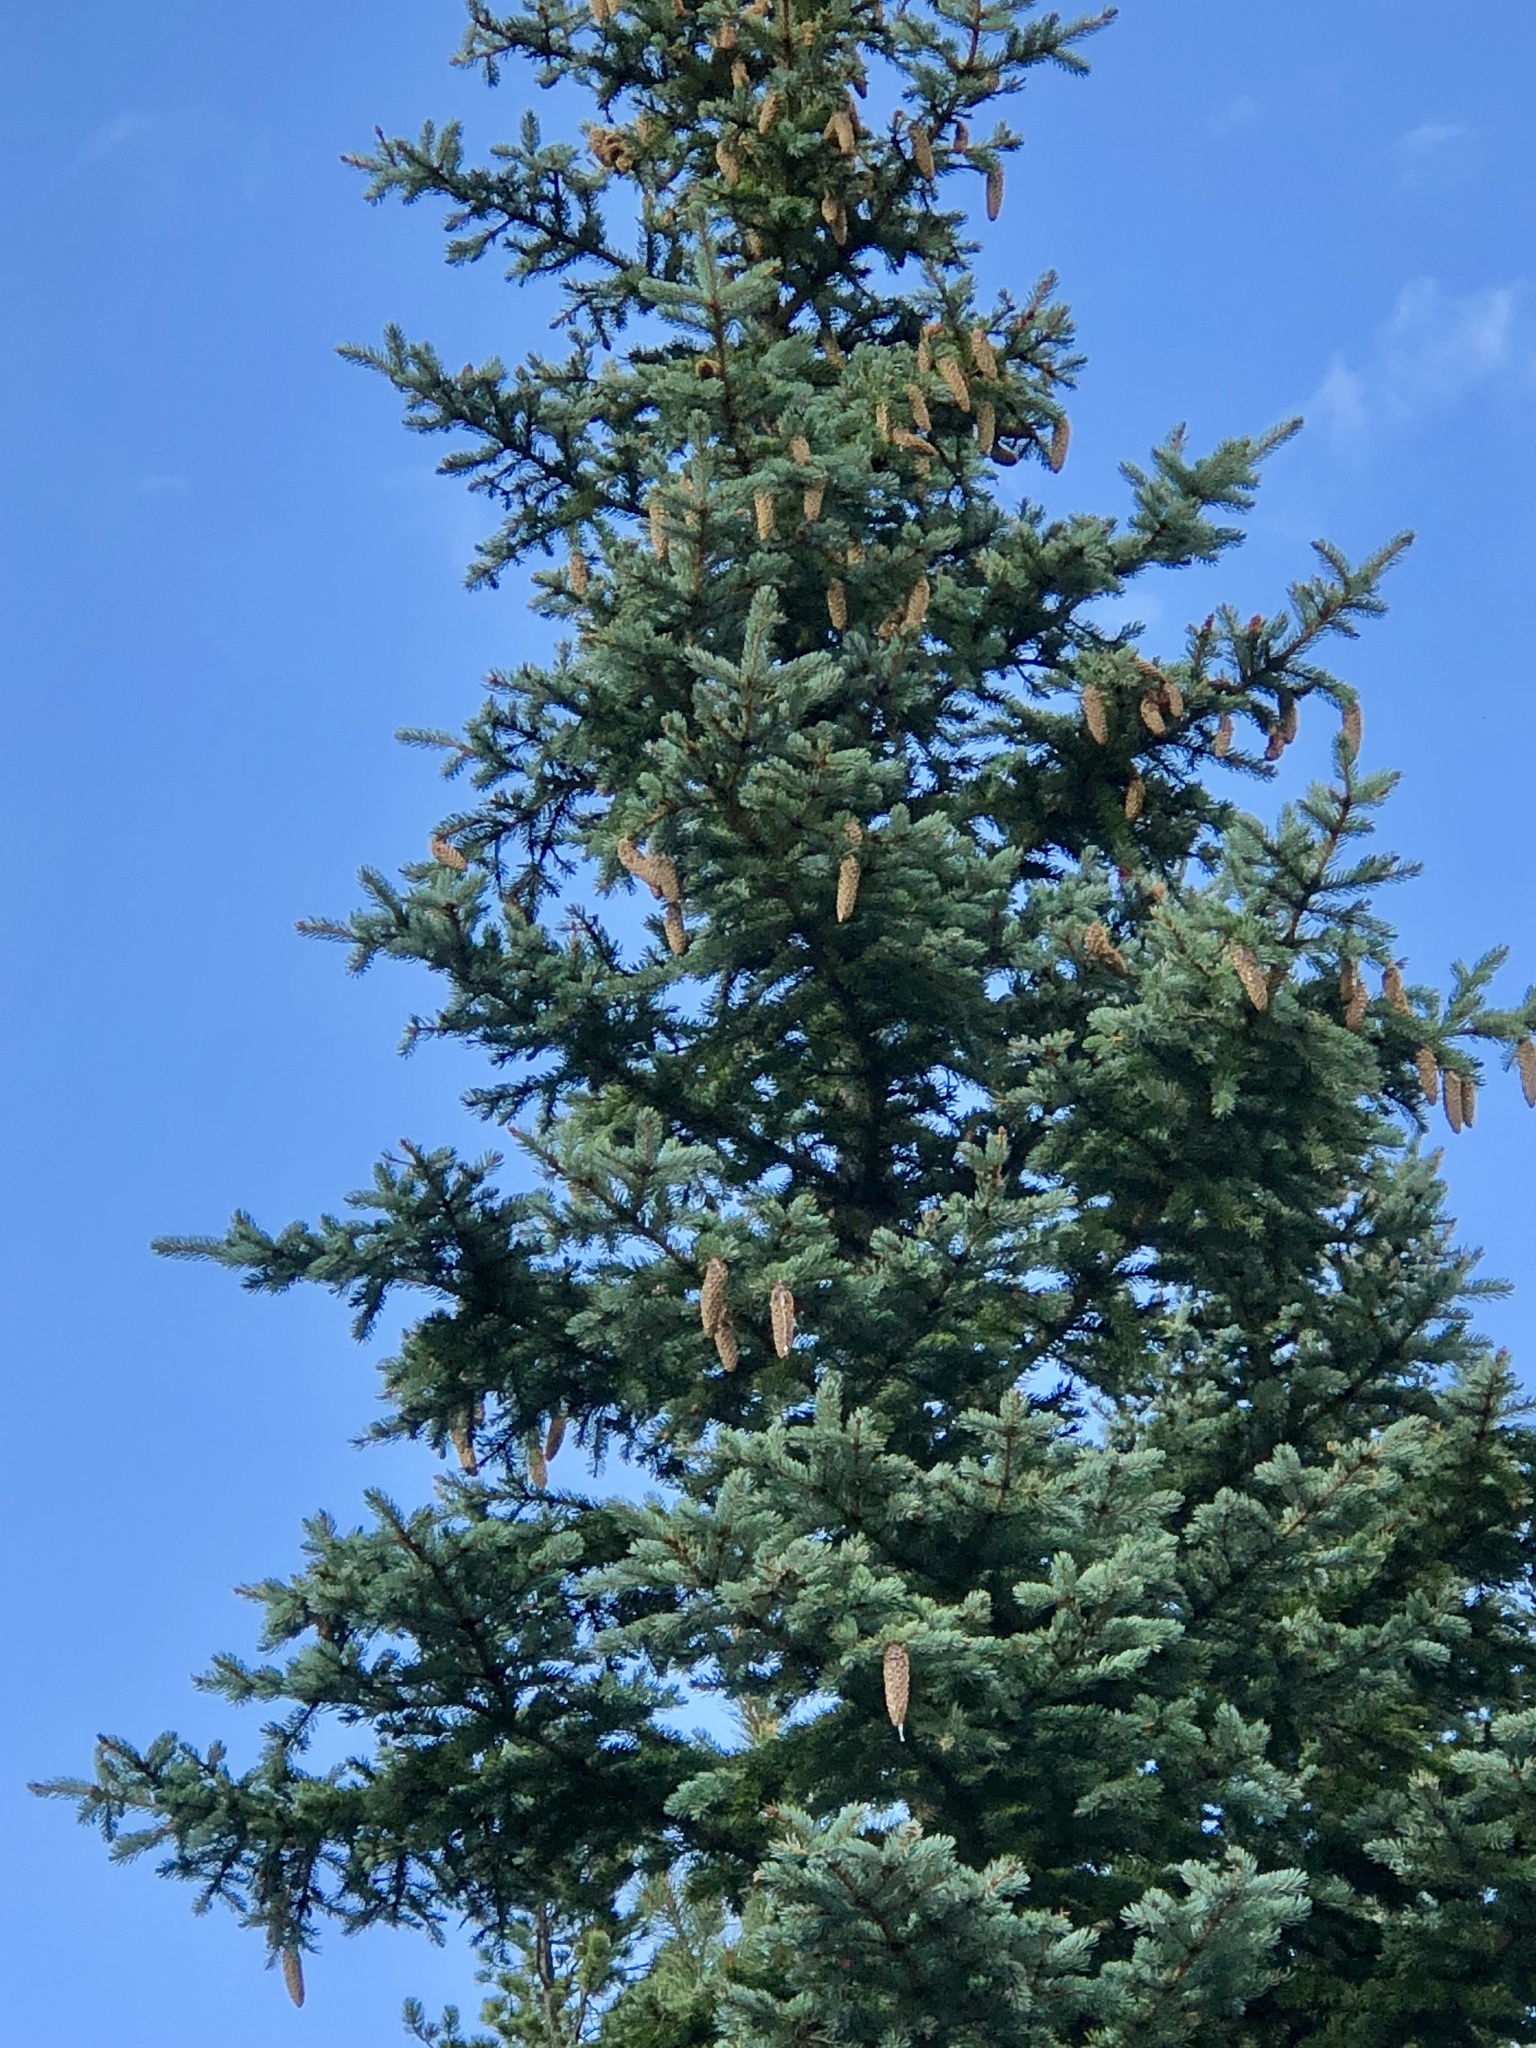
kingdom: Plantae
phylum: Tracheophyta
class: Pinopsida
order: Pinales
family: Pinaceae
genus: Picea
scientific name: Picea pungens
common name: Colorado spruce
